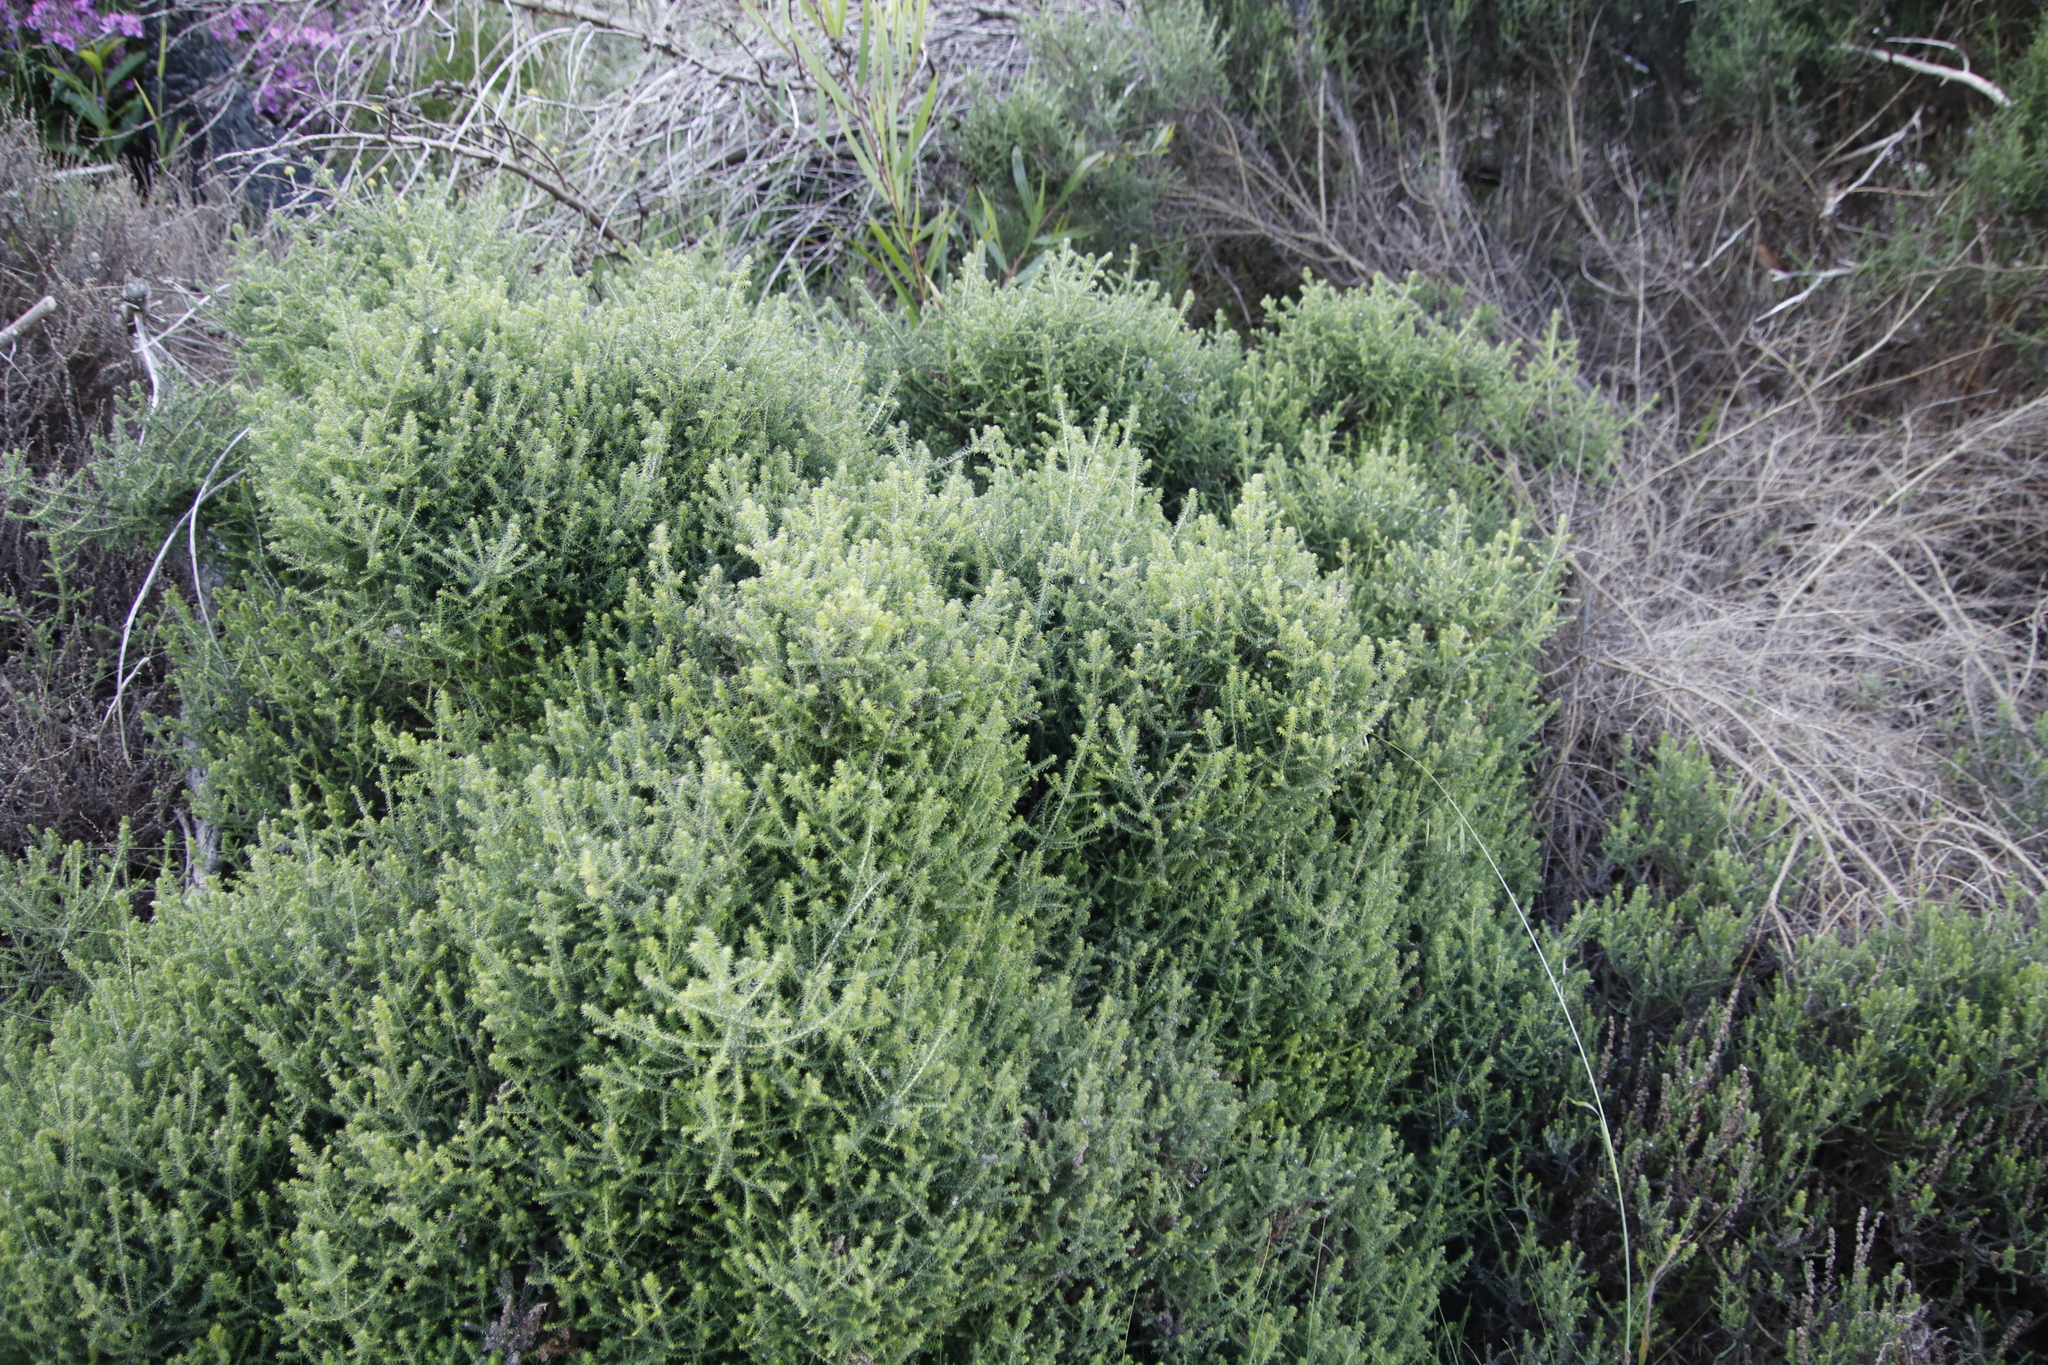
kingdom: Plantae
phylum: Tracheophyta
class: Magnoliopsida
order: Asterales
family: Asteraceae
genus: Seriphium
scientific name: Seriphium cinereum
